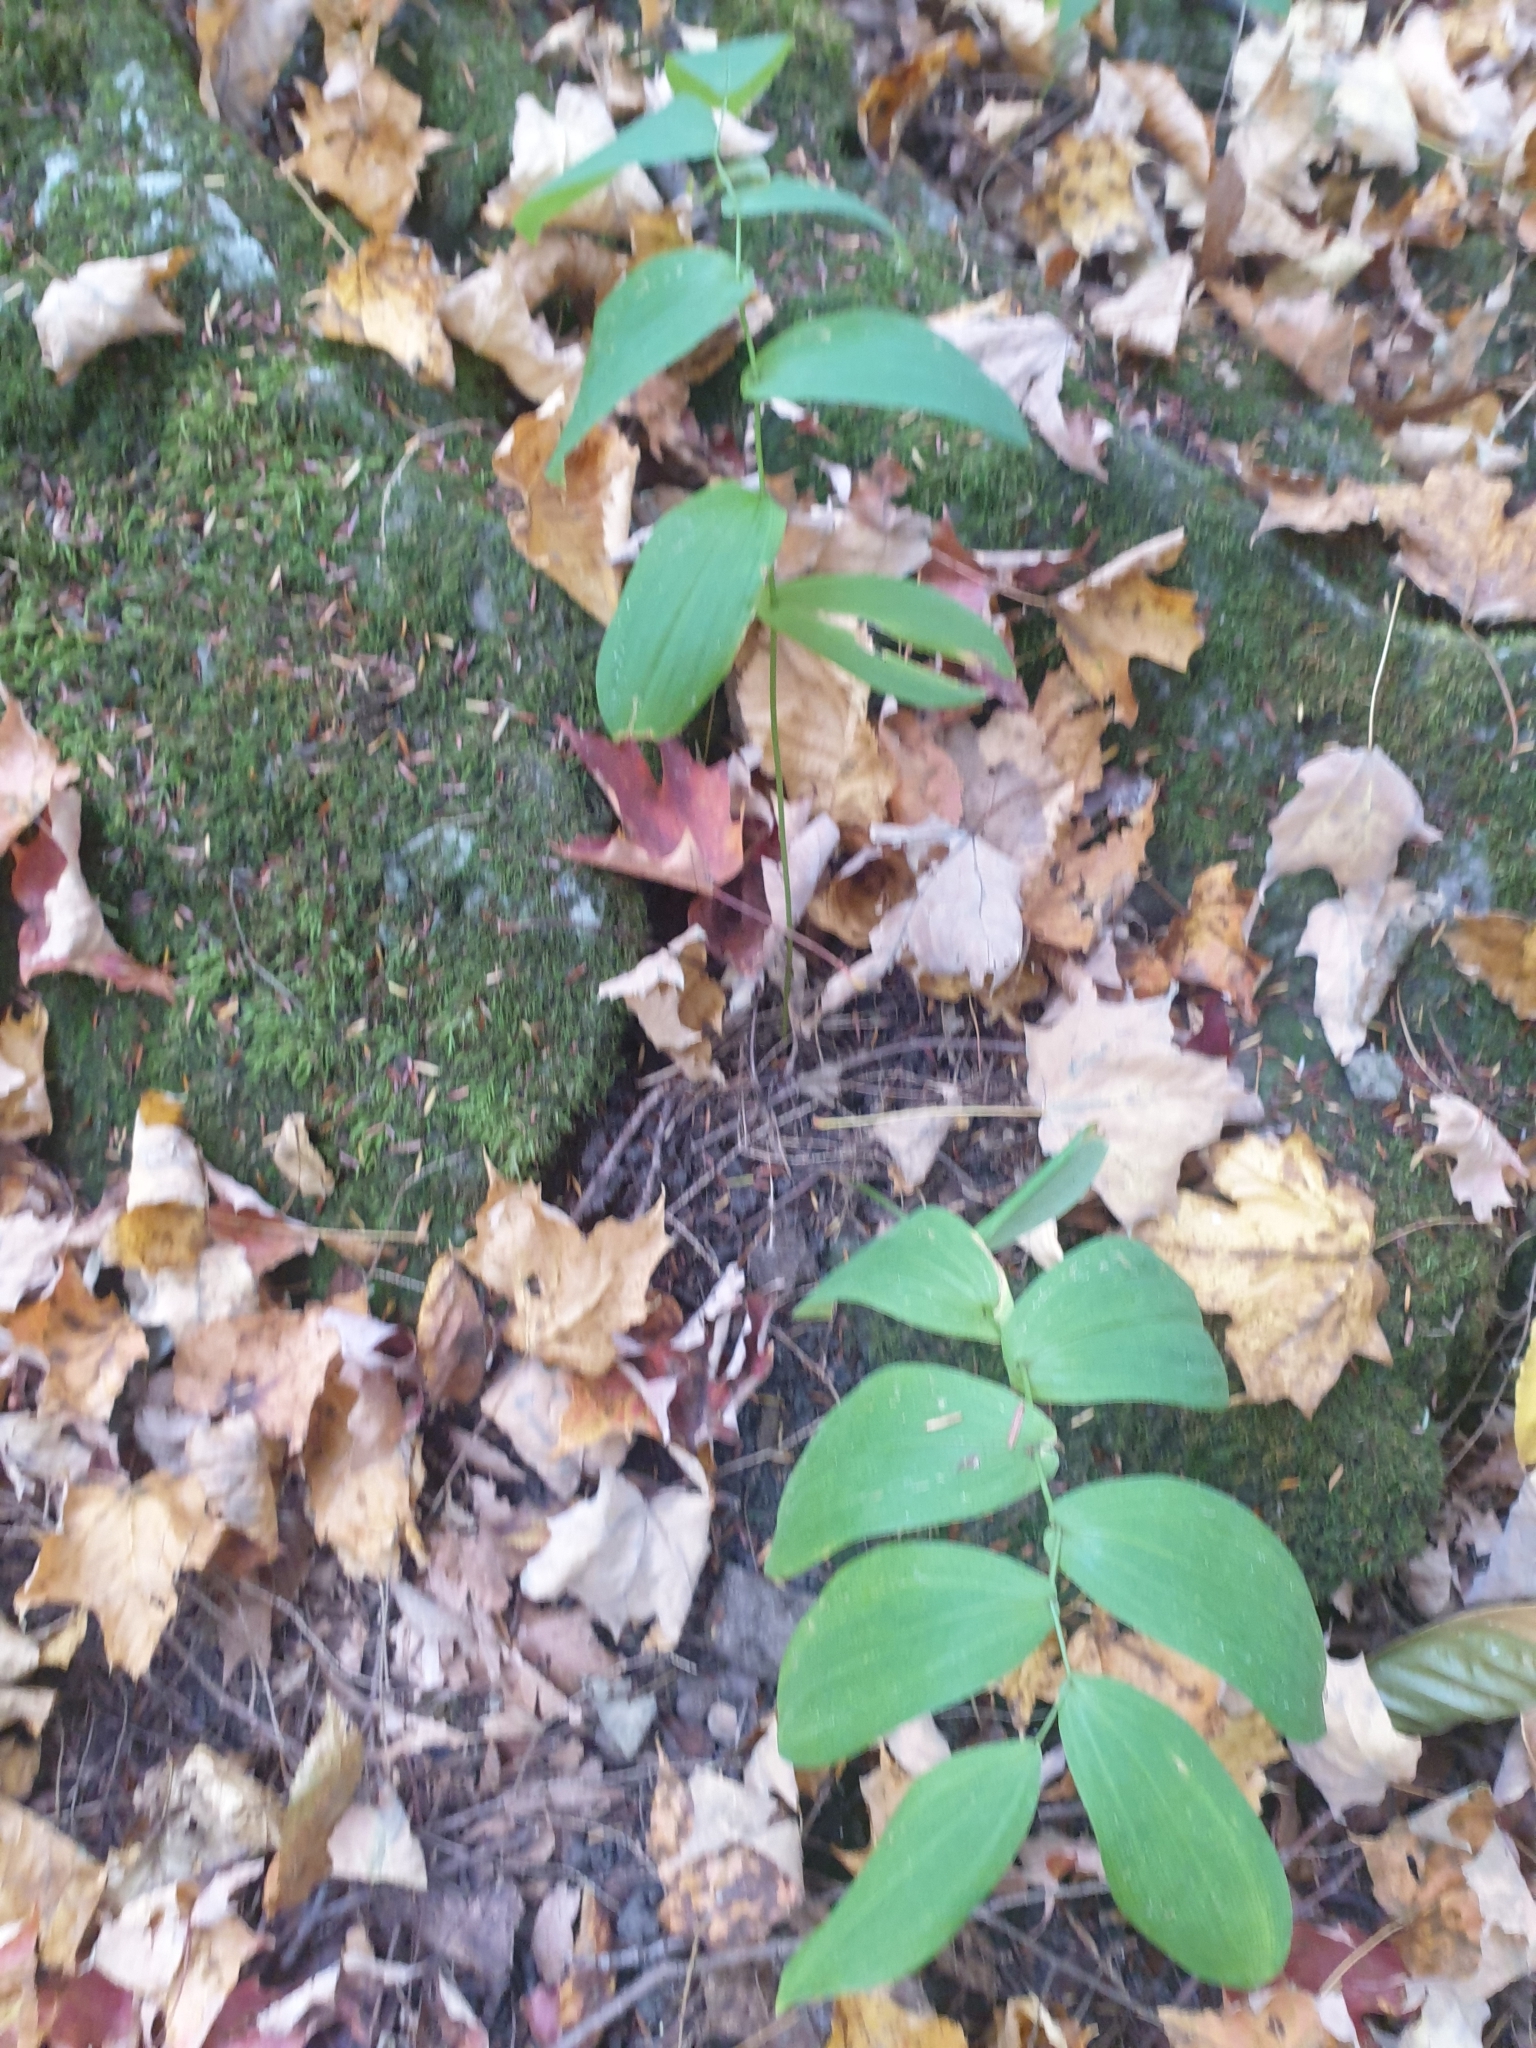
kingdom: Plantae
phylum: Tracheophyta
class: Liliopsida
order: Liliales
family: Colchicaceae
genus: Uvularia
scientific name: Uvularia grandiflora
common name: Bellwort
